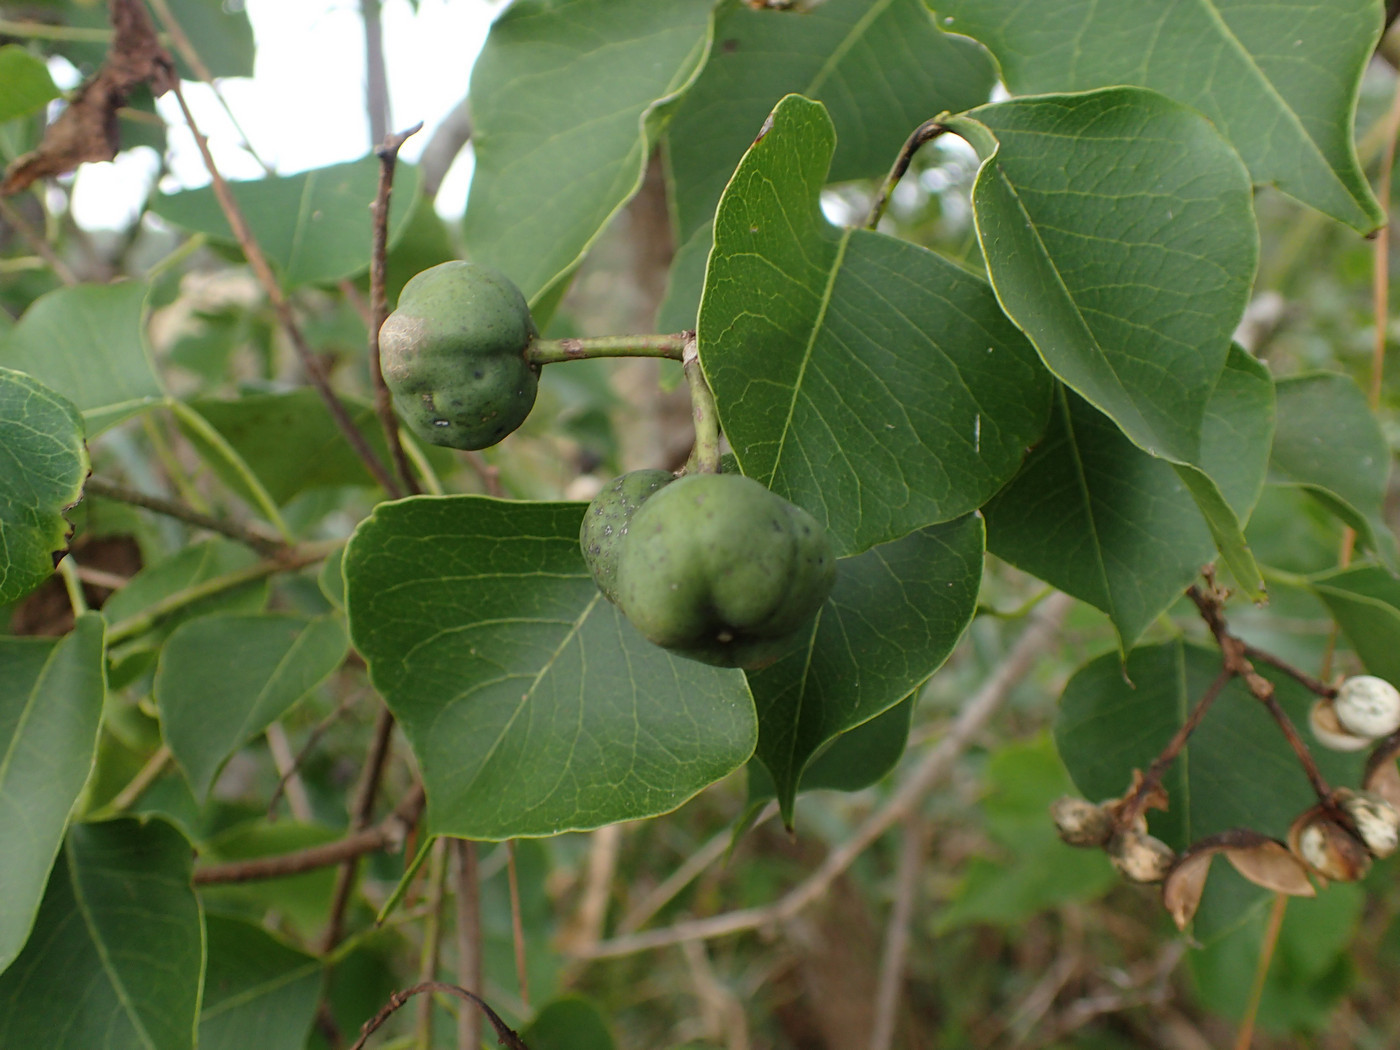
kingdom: Plantae
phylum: Tracheophyta
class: Magnoliopsida
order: Malpighiales
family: Euphorbiaceae
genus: Triadica
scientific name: Triadica sebifera
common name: Chinese tallow
